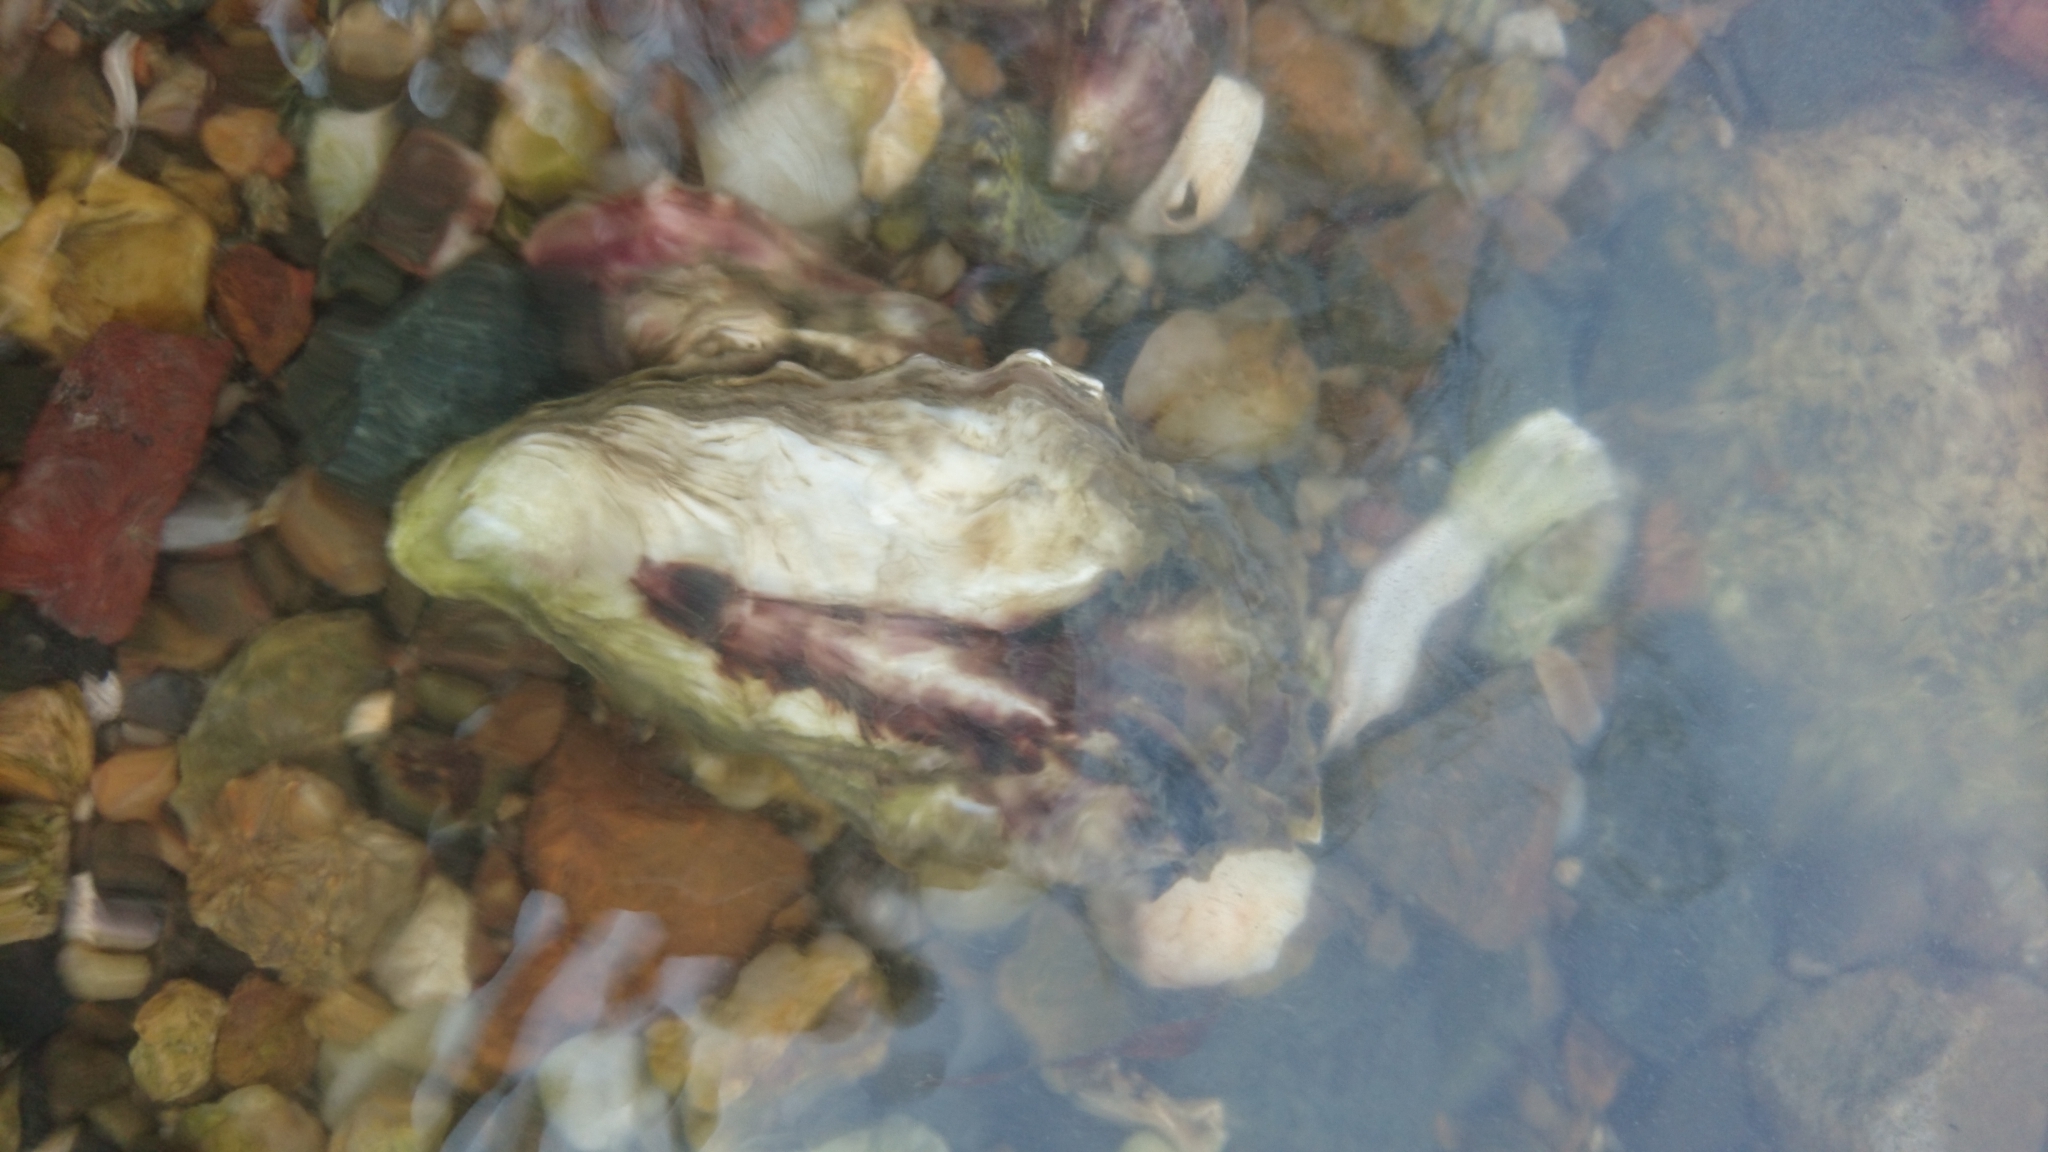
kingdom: Animalia
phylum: Mollusca
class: Bivalvia
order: Ostreida
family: Ostreidae
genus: Saccostrea
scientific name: Saccostrea glomerata
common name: Sydney cupped oyster
